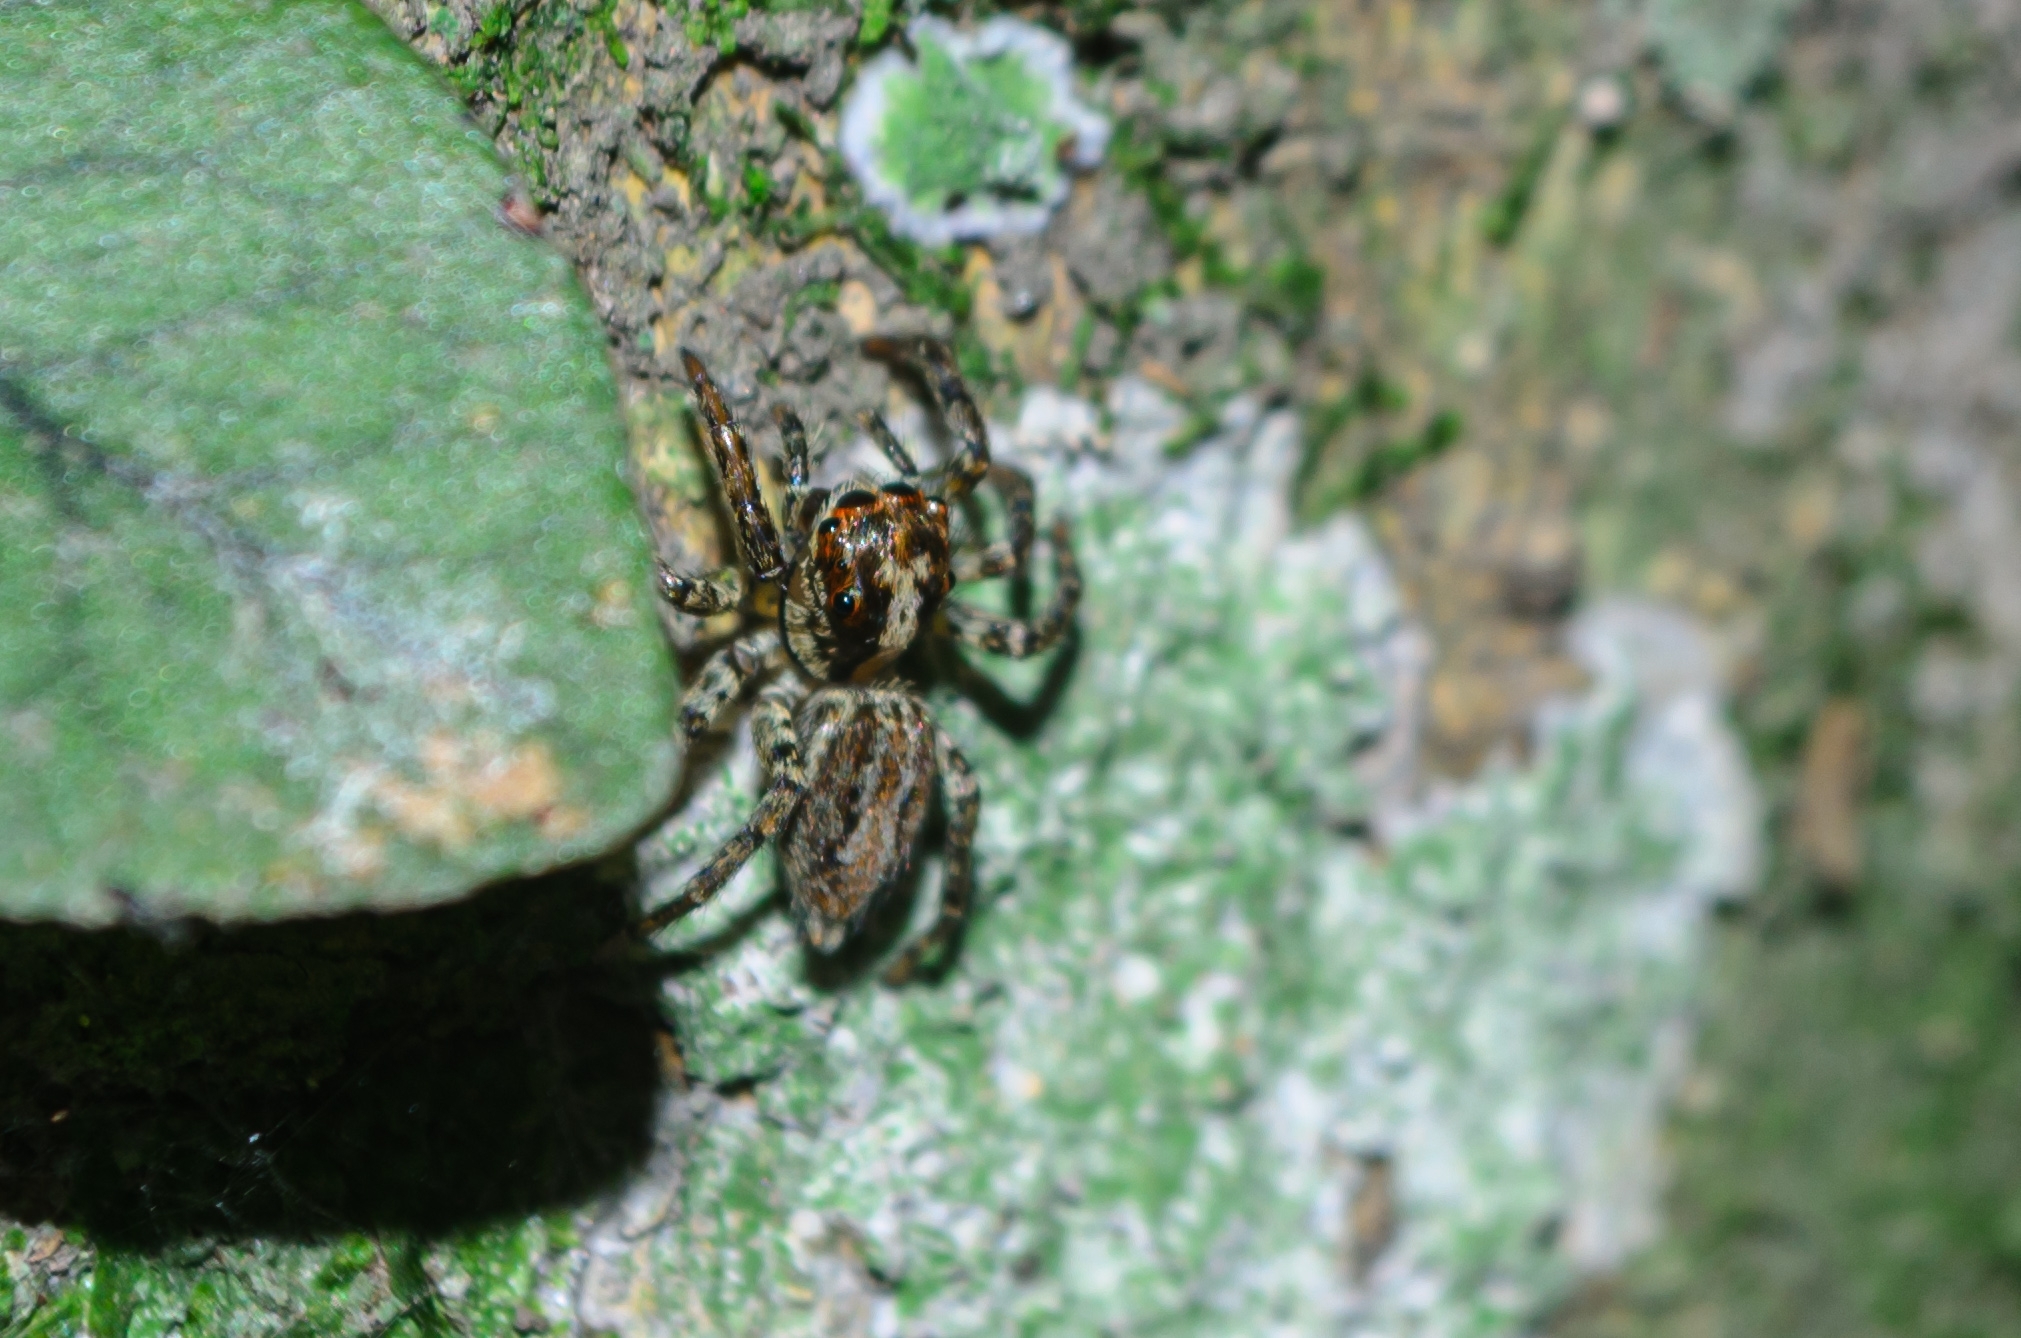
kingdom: Animalia
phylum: Arthropoda
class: Arachnida
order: Araneae
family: Salticidae
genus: Asaphobelis
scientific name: Asaphobelis physonychus
